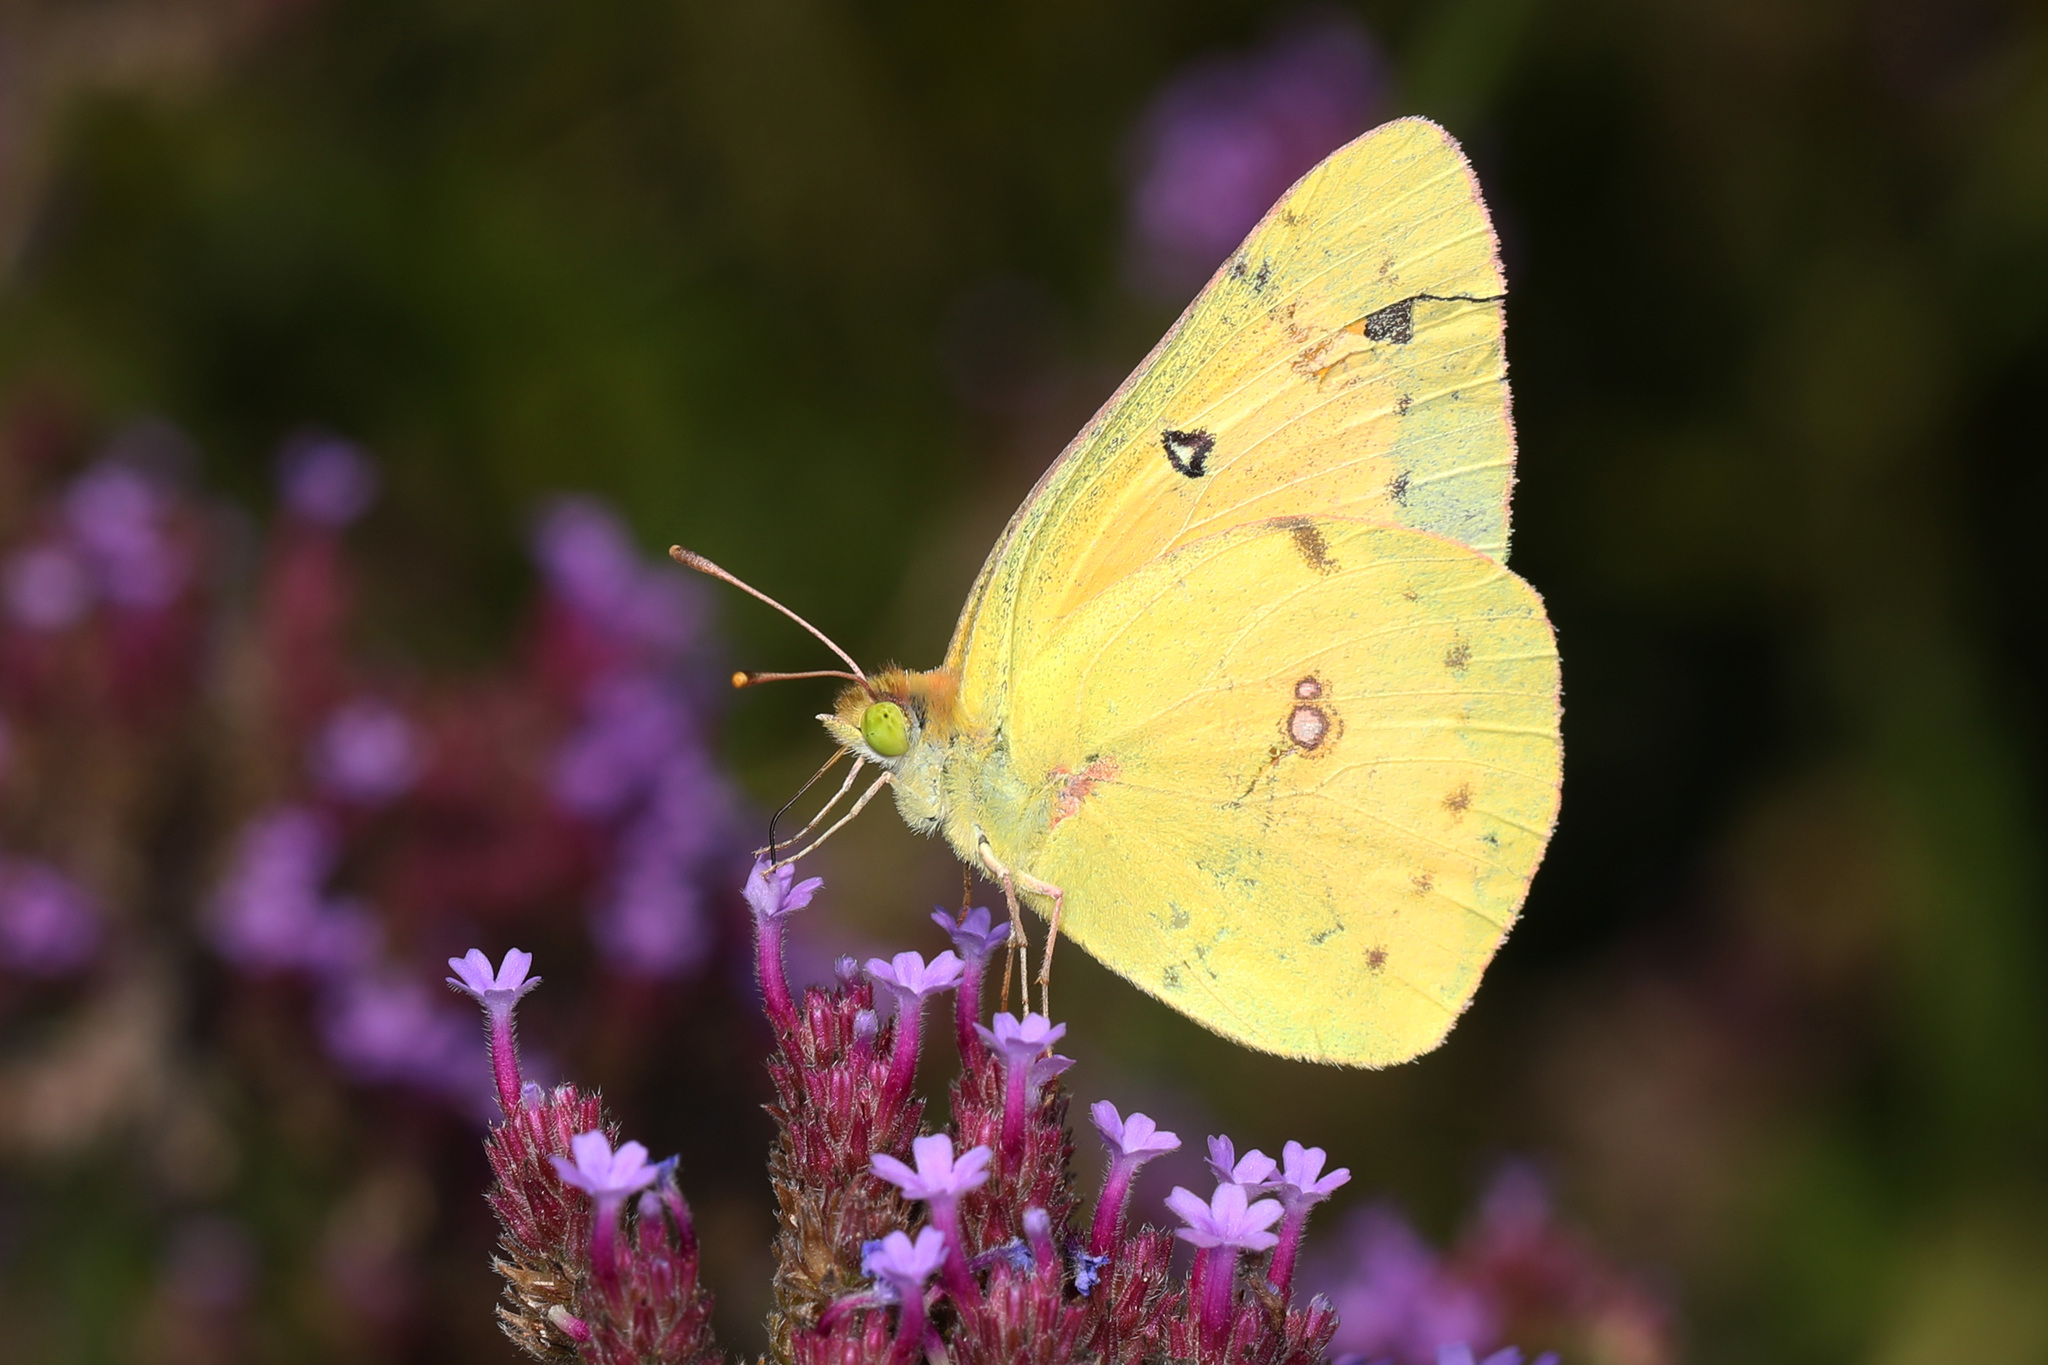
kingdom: Animalia
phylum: Arthropoda
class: Insecta
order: Lepidoptera
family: Pieridae
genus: Colias
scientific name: Colias eurytheme
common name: Alfalfa butterfly
